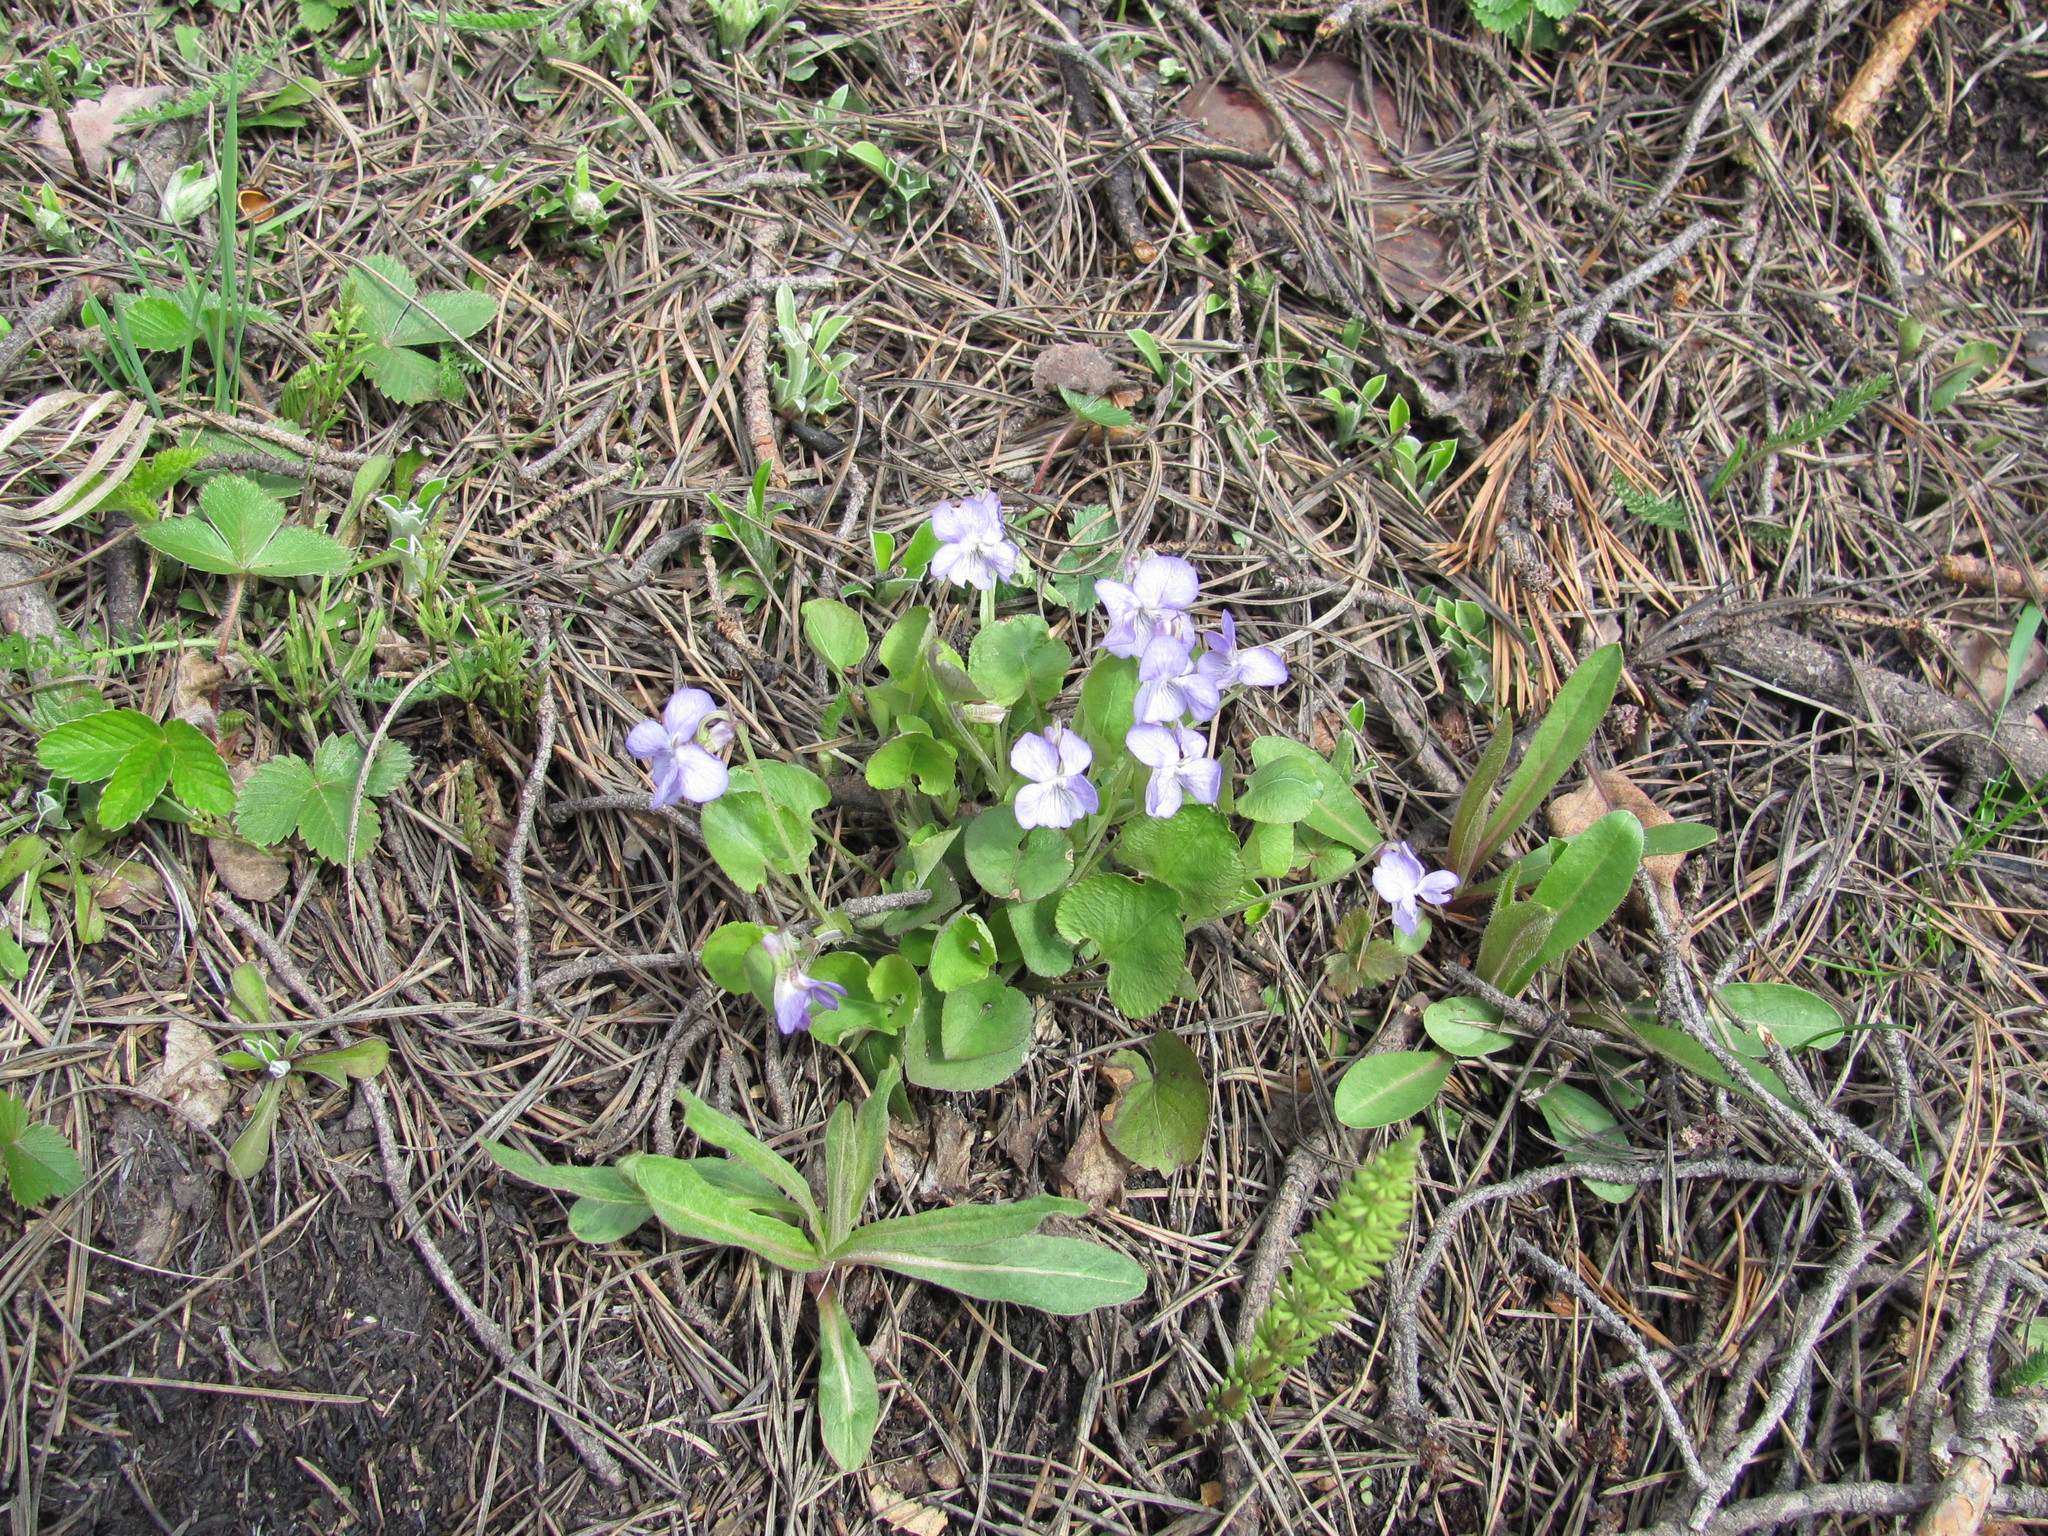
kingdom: Plantae
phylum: Tracheophyta
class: Magnoliopsida
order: Malpighiales
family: Violaceae
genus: Viola
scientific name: Viola rupestris
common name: Teesdale violet
